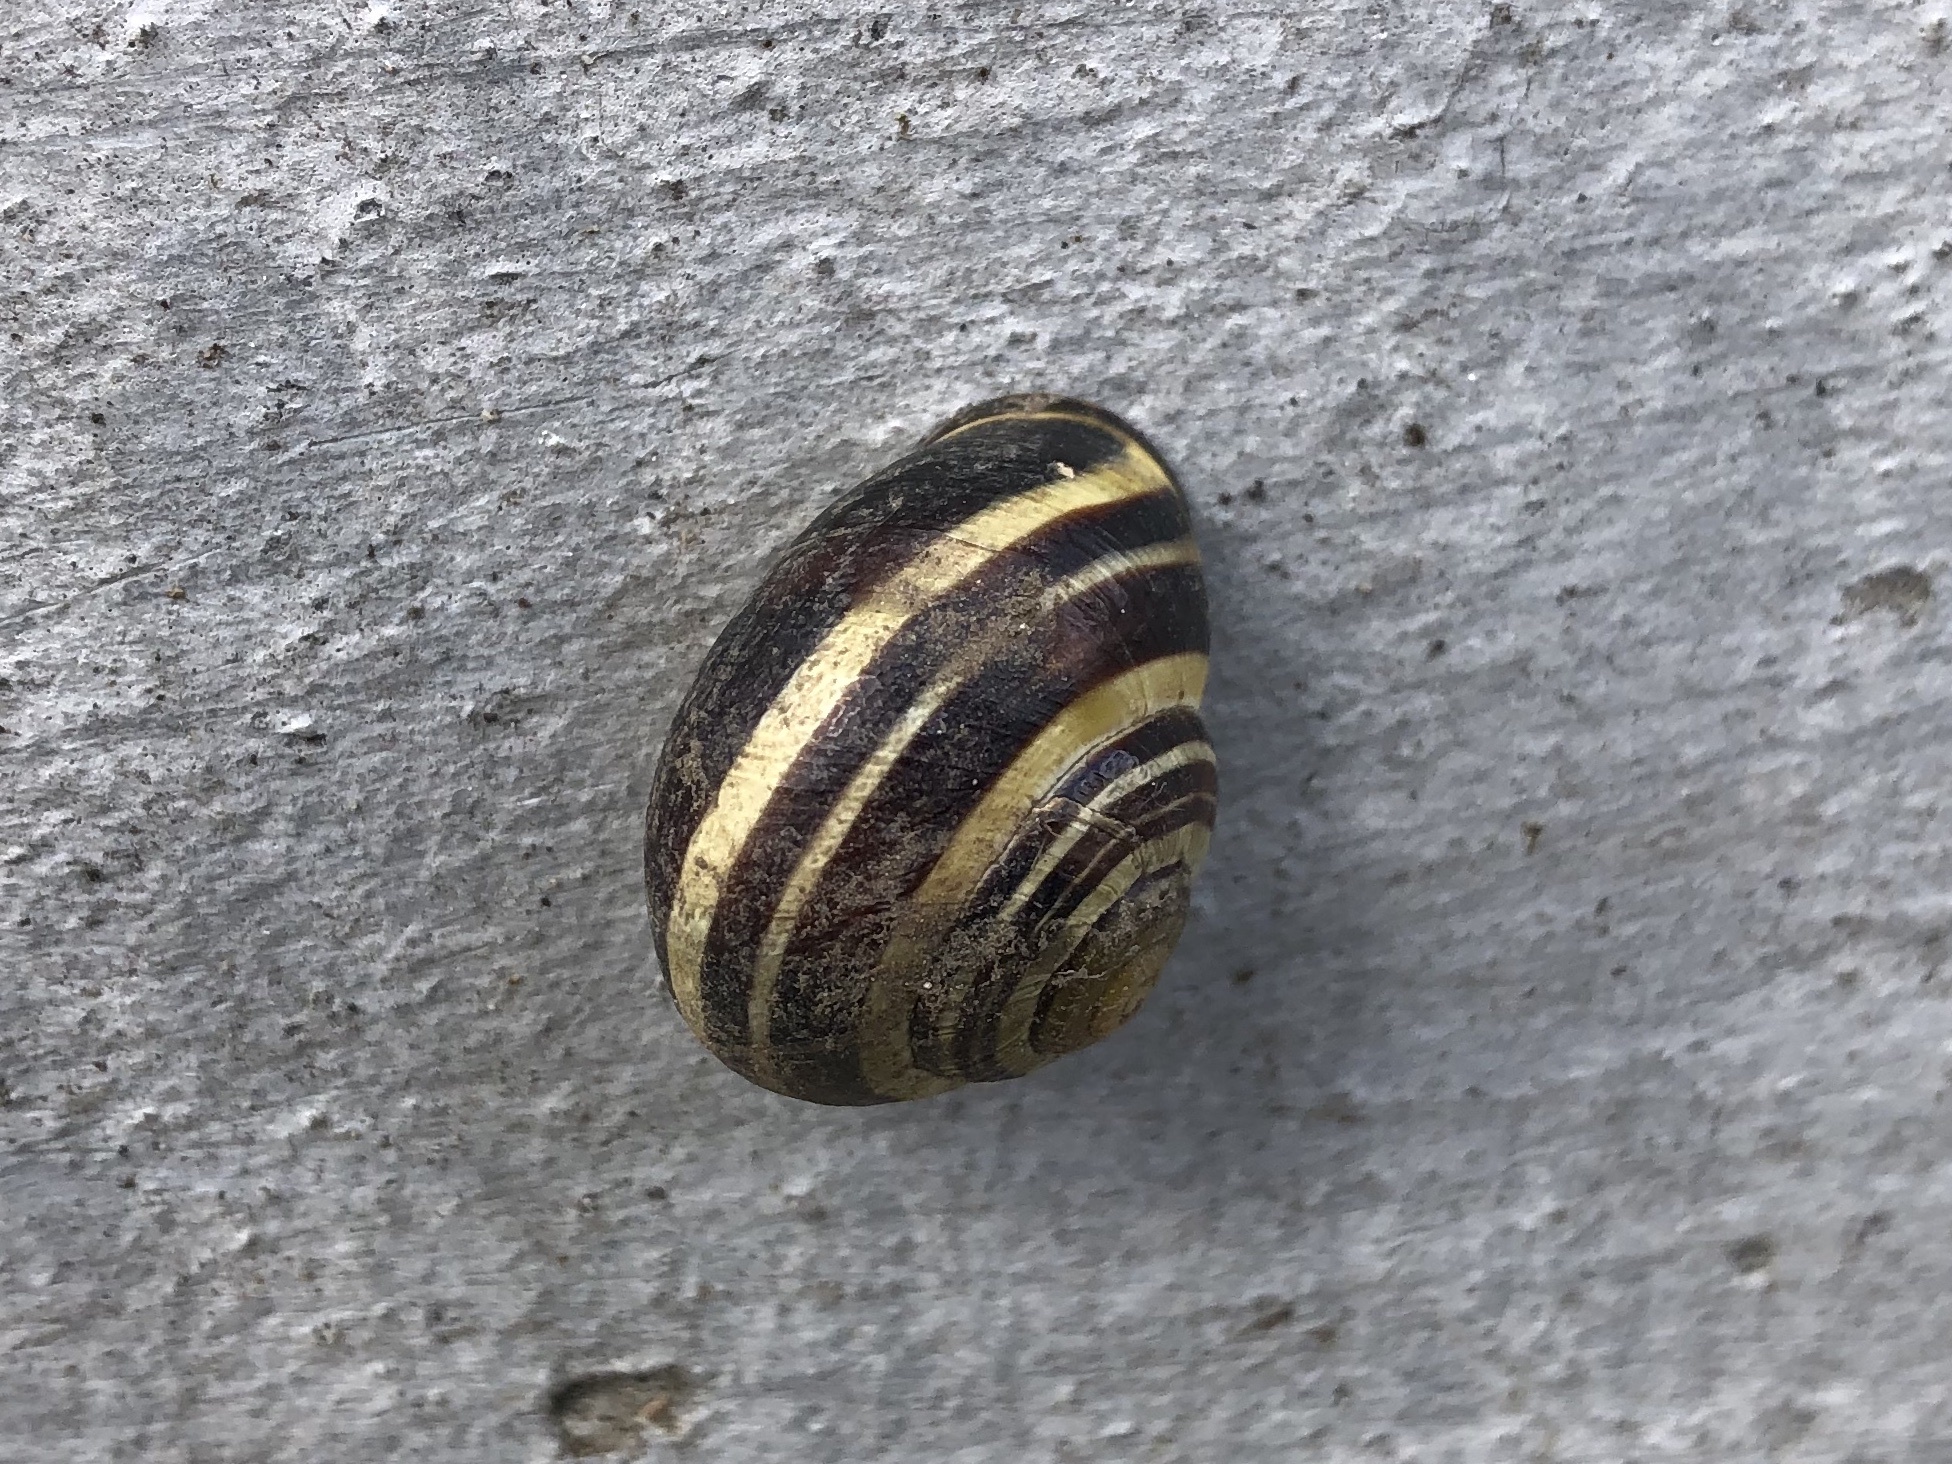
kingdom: Animalia
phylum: Mollusca
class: Gastropoda
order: Stylommatophora
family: Helicidae
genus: Cepaea
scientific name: Cepaea nemoralis
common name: Grovesnail
